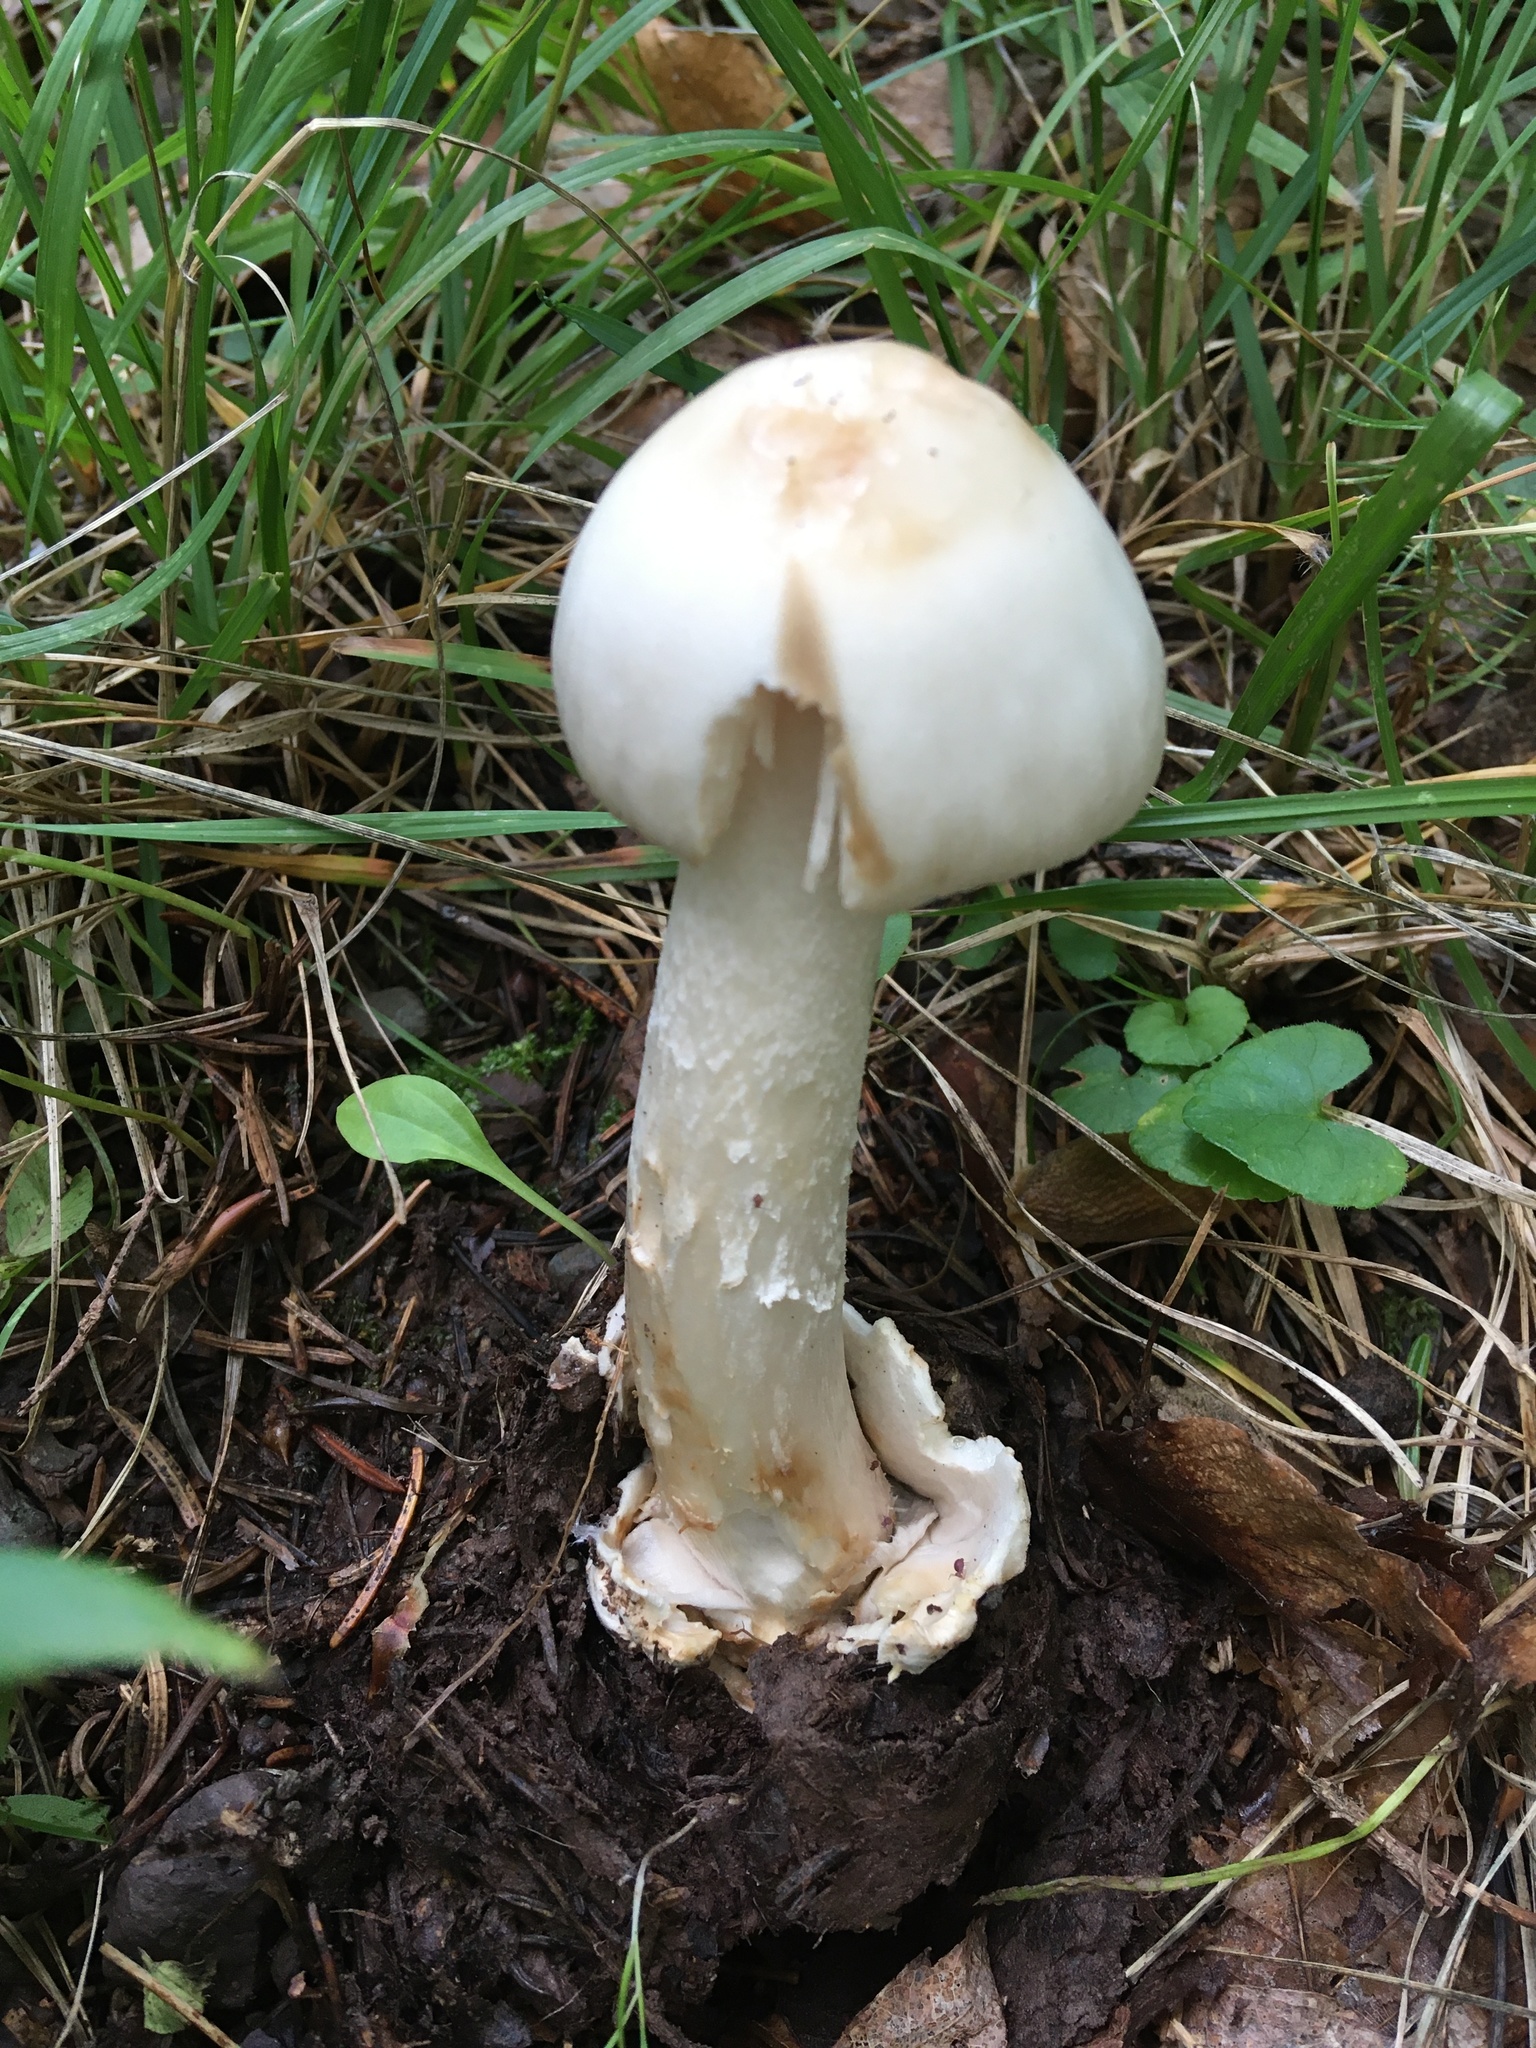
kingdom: Fungi
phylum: Basidiomycota
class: Agaricomycetes
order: Agaricales
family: Amanitaceae
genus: Amanita
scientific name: Amanita bisporigera
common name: Eastern north american destroying angel
